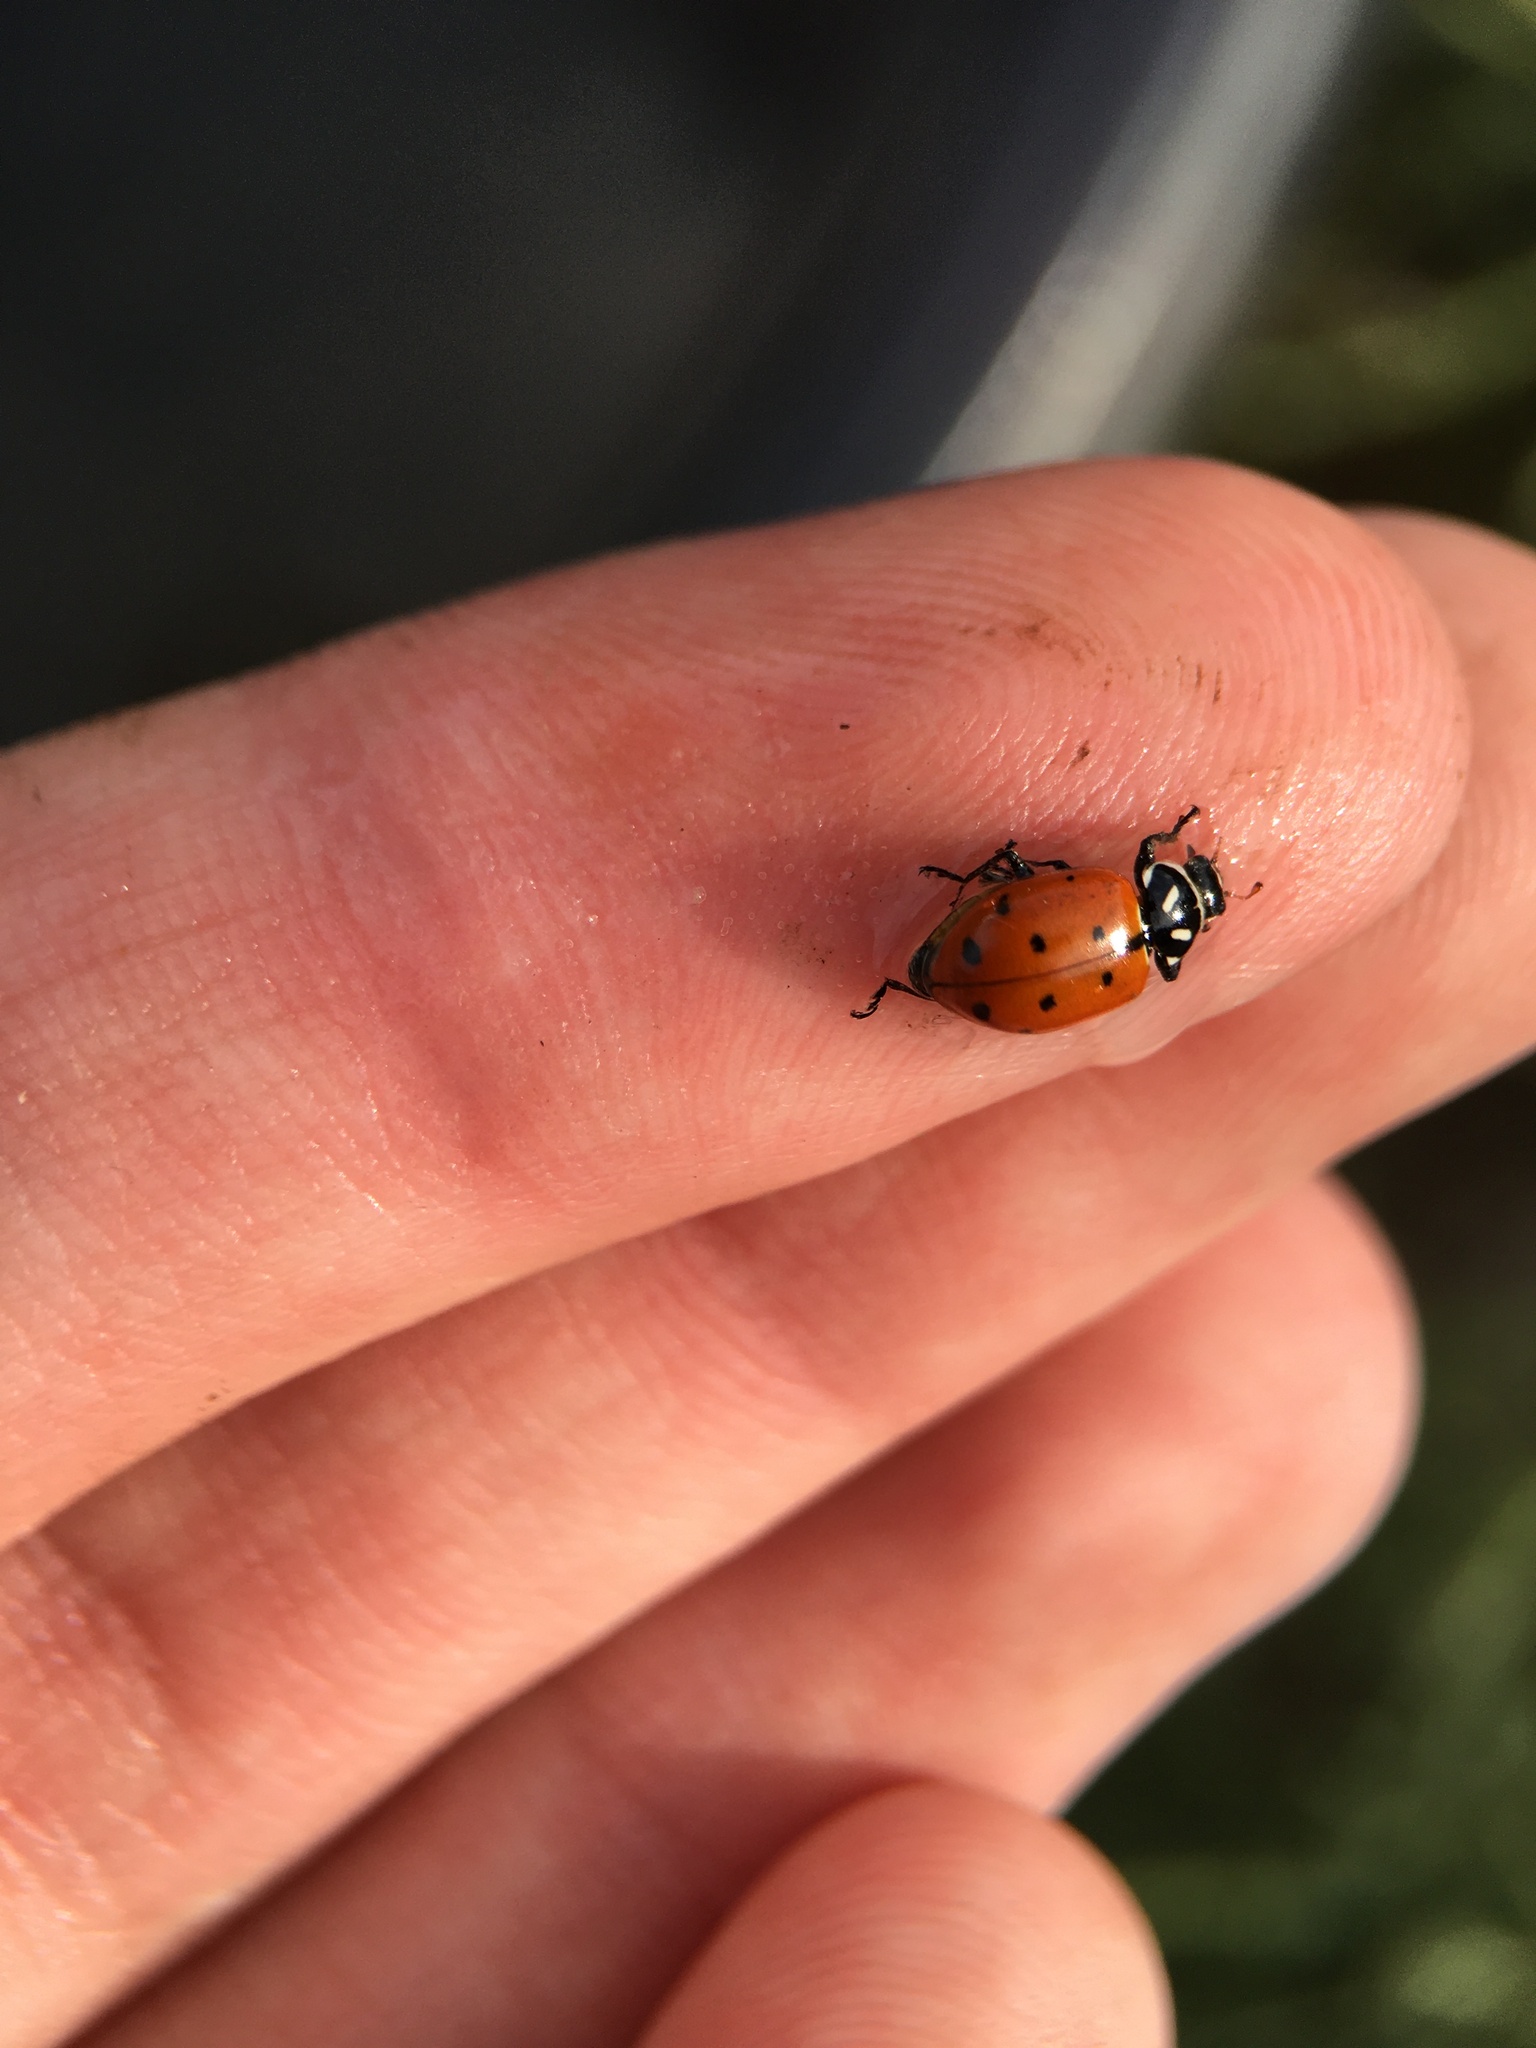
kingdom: Animalia
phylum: Arthropoda
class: Insecta
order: Coleoptera
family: Coccinellidae
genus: Hippodamia
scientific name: Hippodamia convergens
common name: Convergent lady beetle
